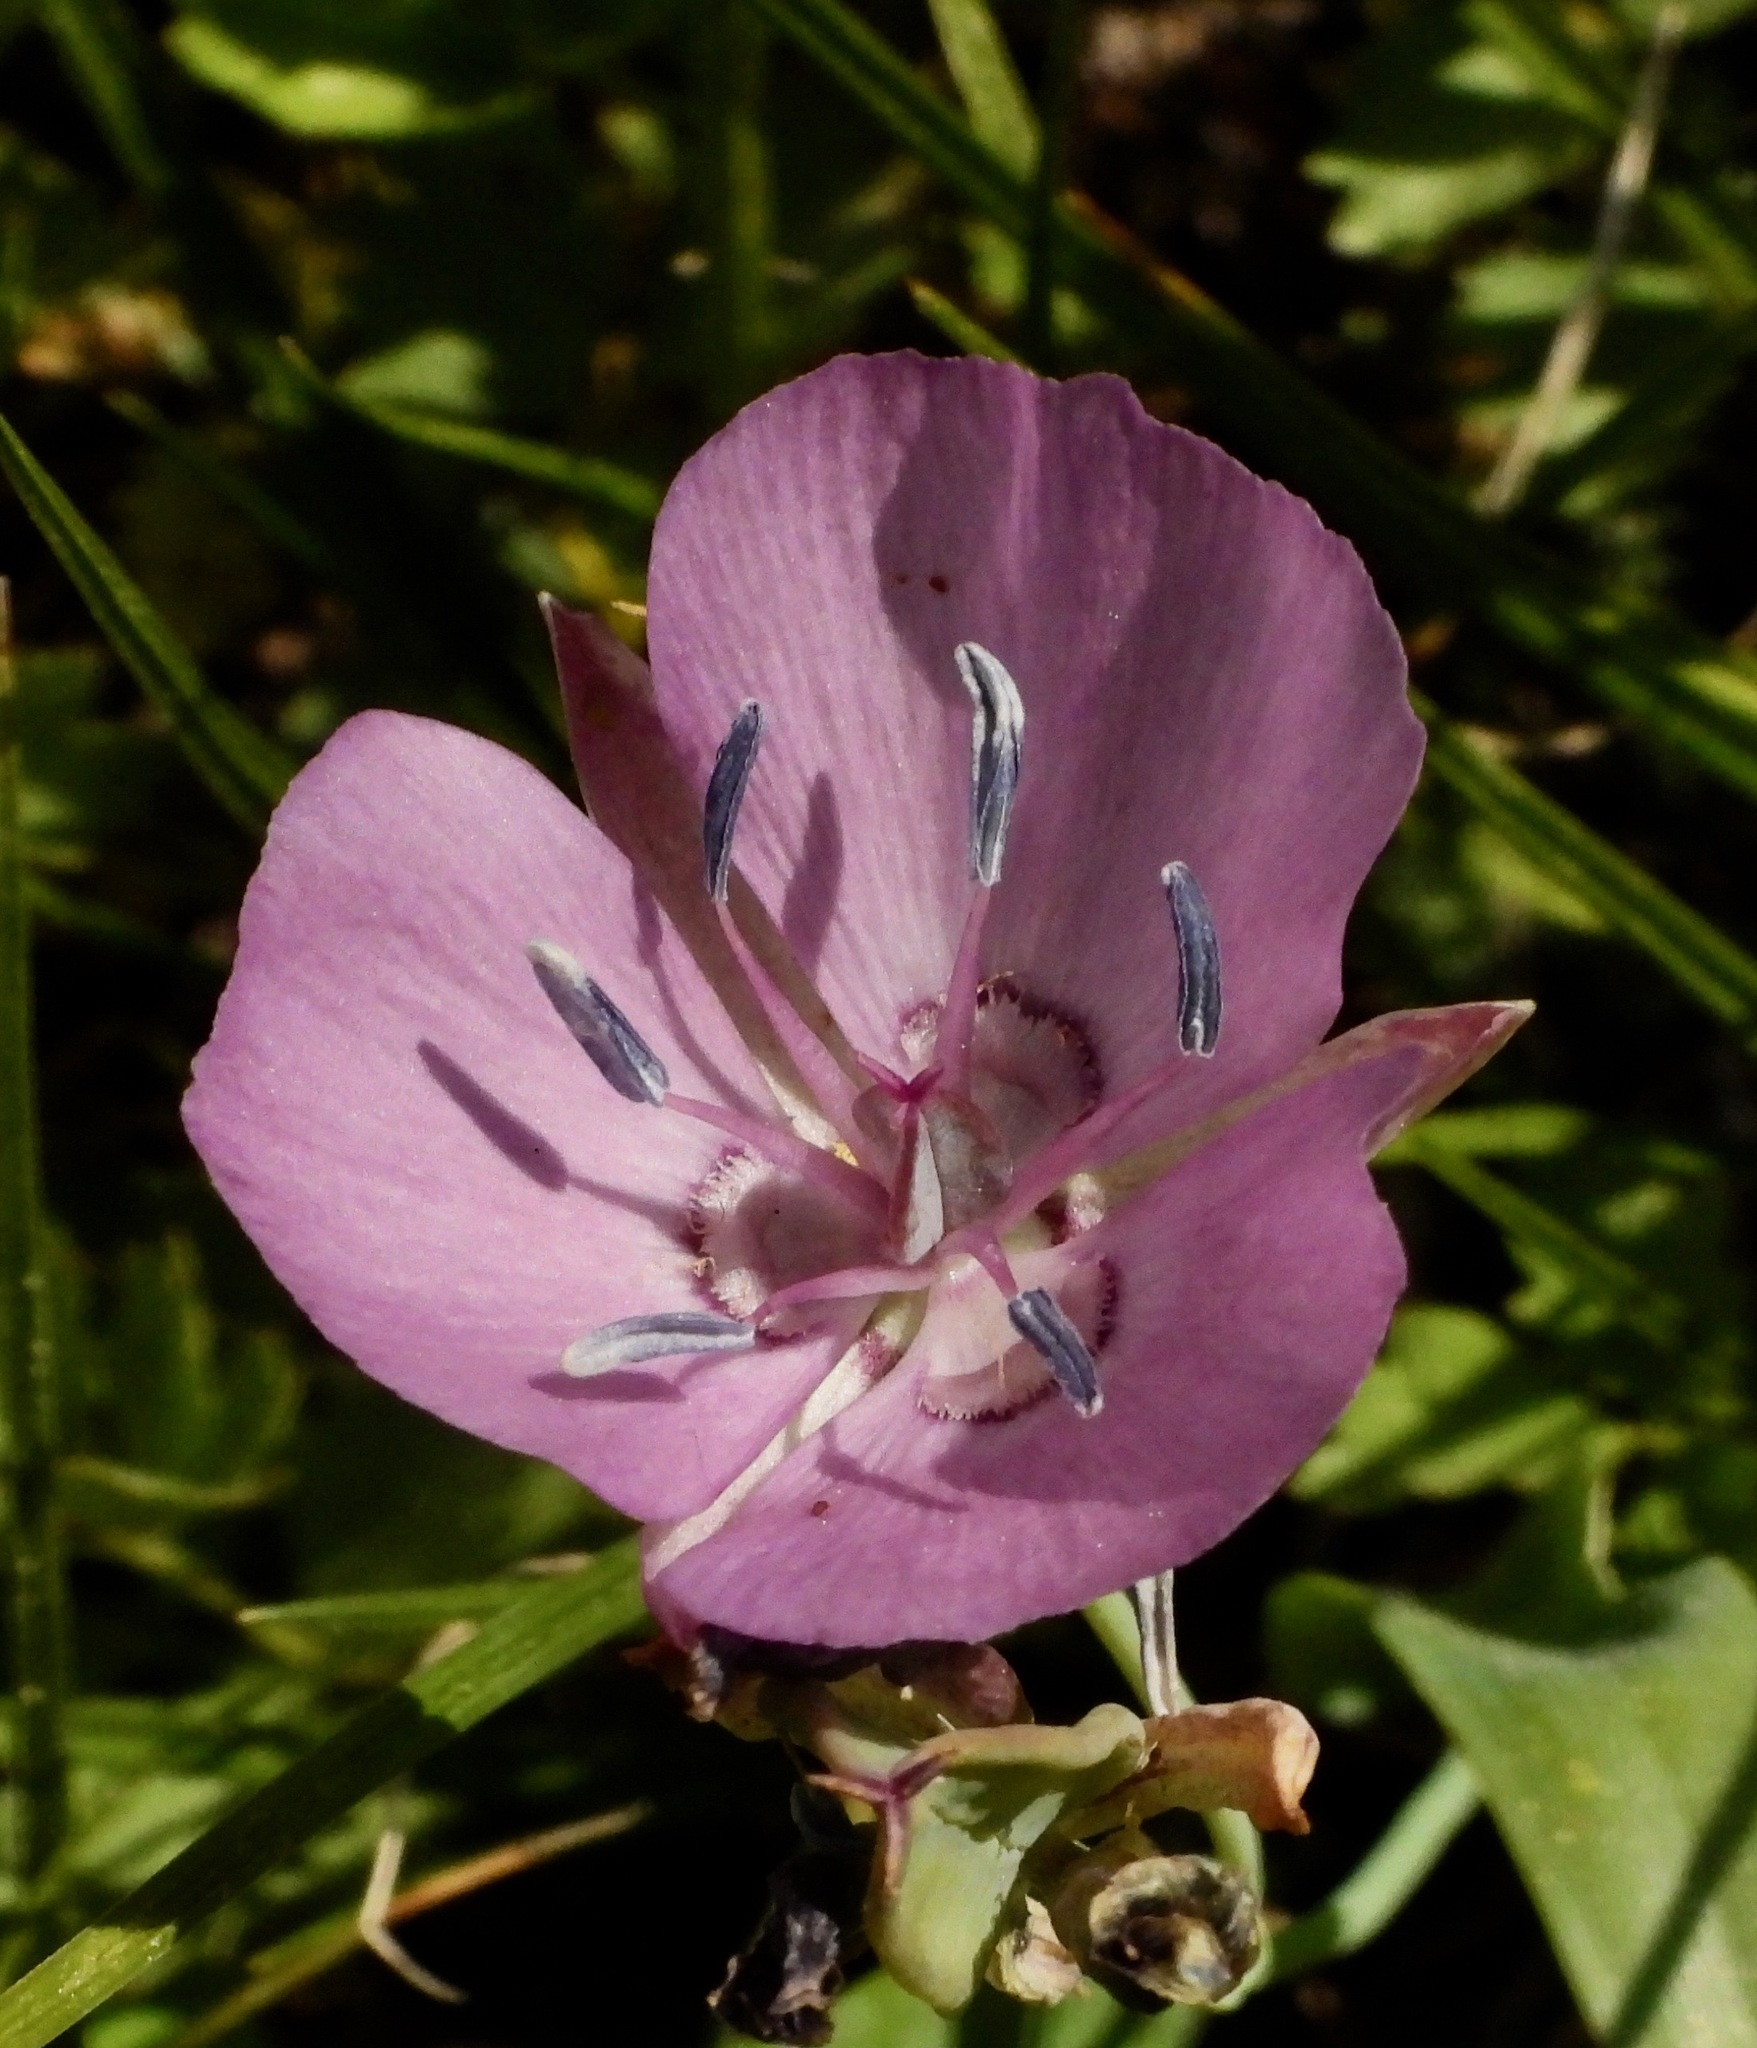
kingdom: Plantae
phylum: Tracheophyta
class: Liliopsida
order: Liliales
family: Liliaceae
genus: Calochortus
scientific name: Calochortus nudus
